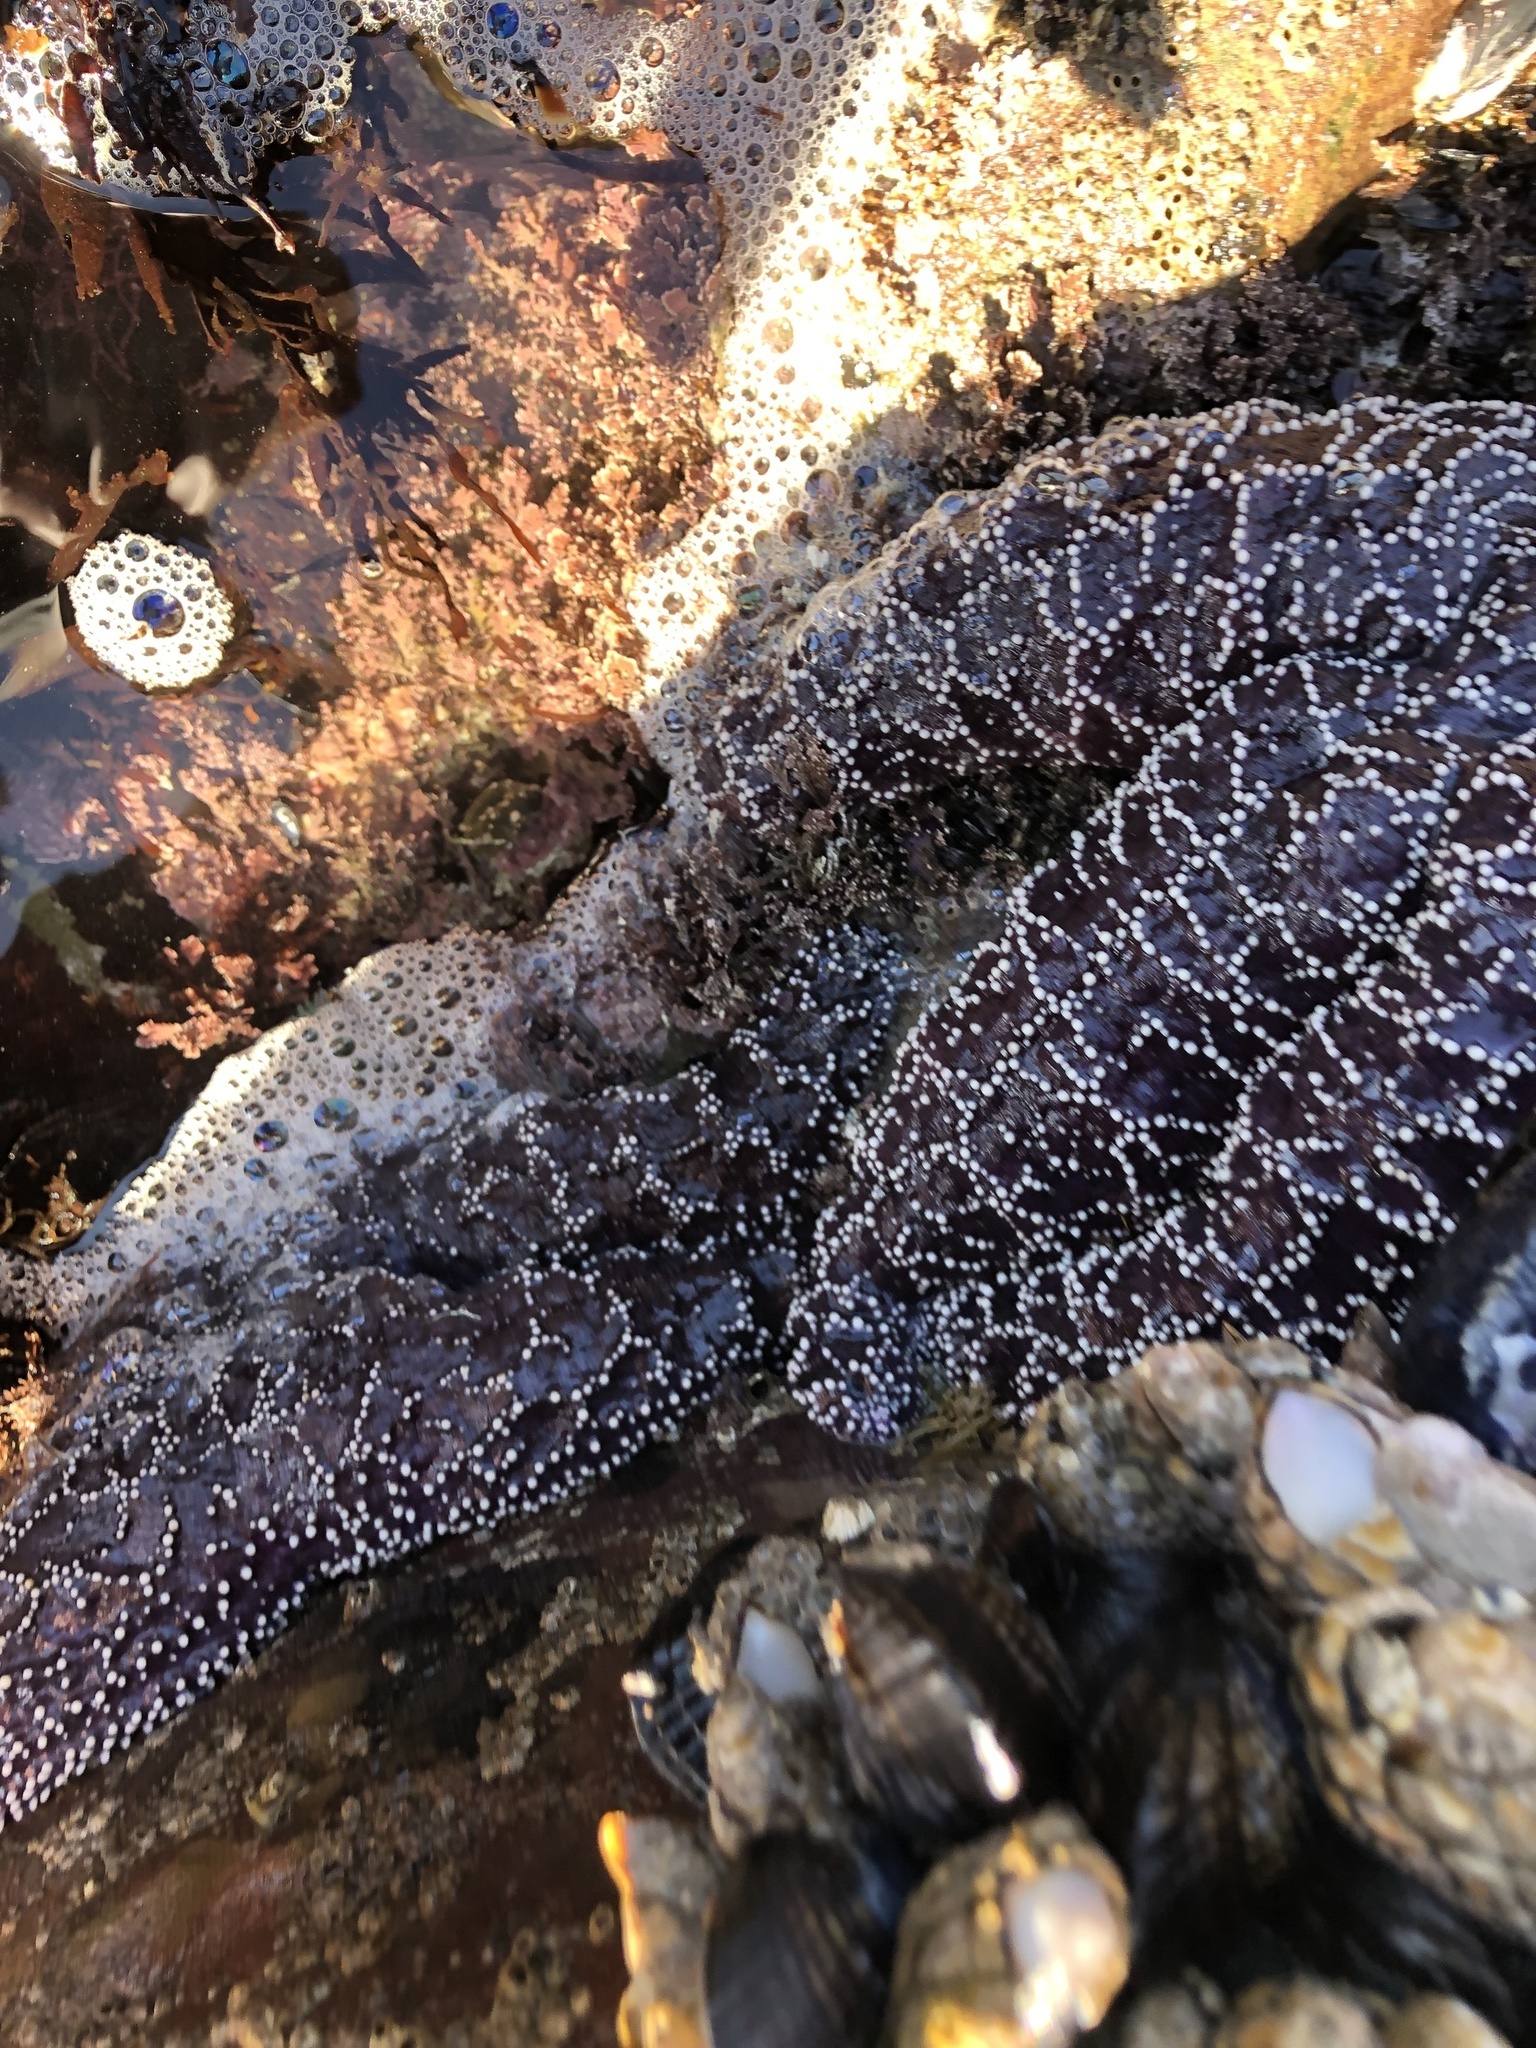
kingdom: Animalia
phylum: Echinodermata
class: Asteroidea
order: Forcipulatida
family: Asteriidae
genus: Pisaster
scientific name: Pisaster ochraceus
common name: Ochre stars
